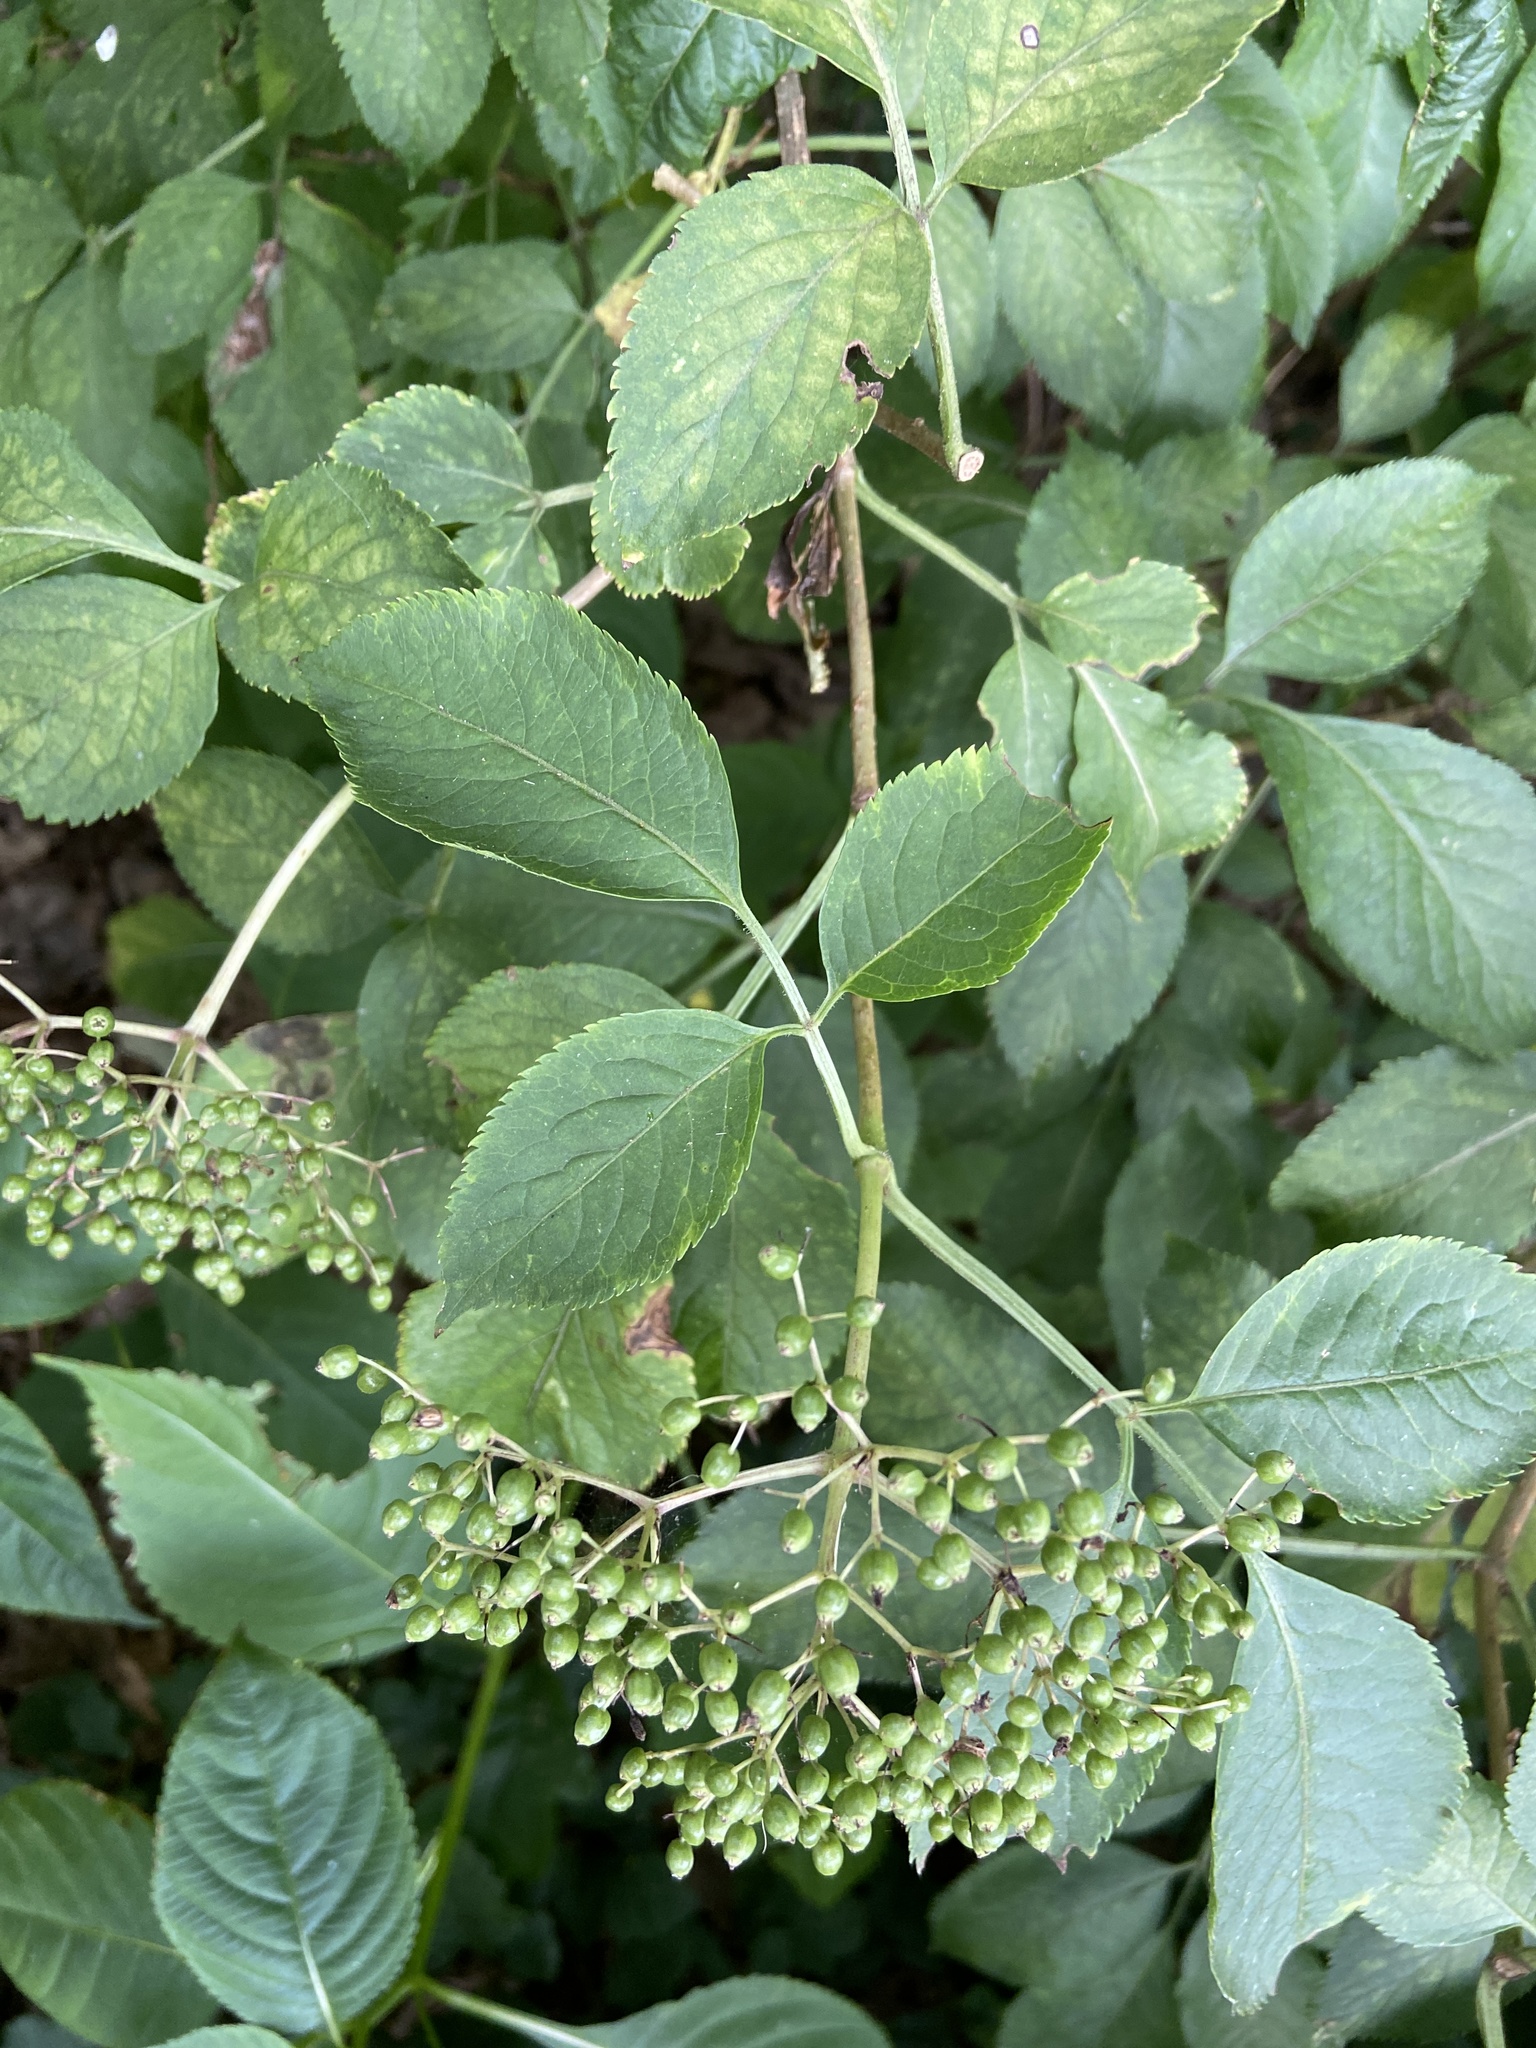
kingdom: Plantae
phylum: Tracheophyta
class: Magnoliopsida
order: Dipsacales
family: Viburnaceae
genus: Sambucus
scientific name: Sambucus nigra
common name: Elder
